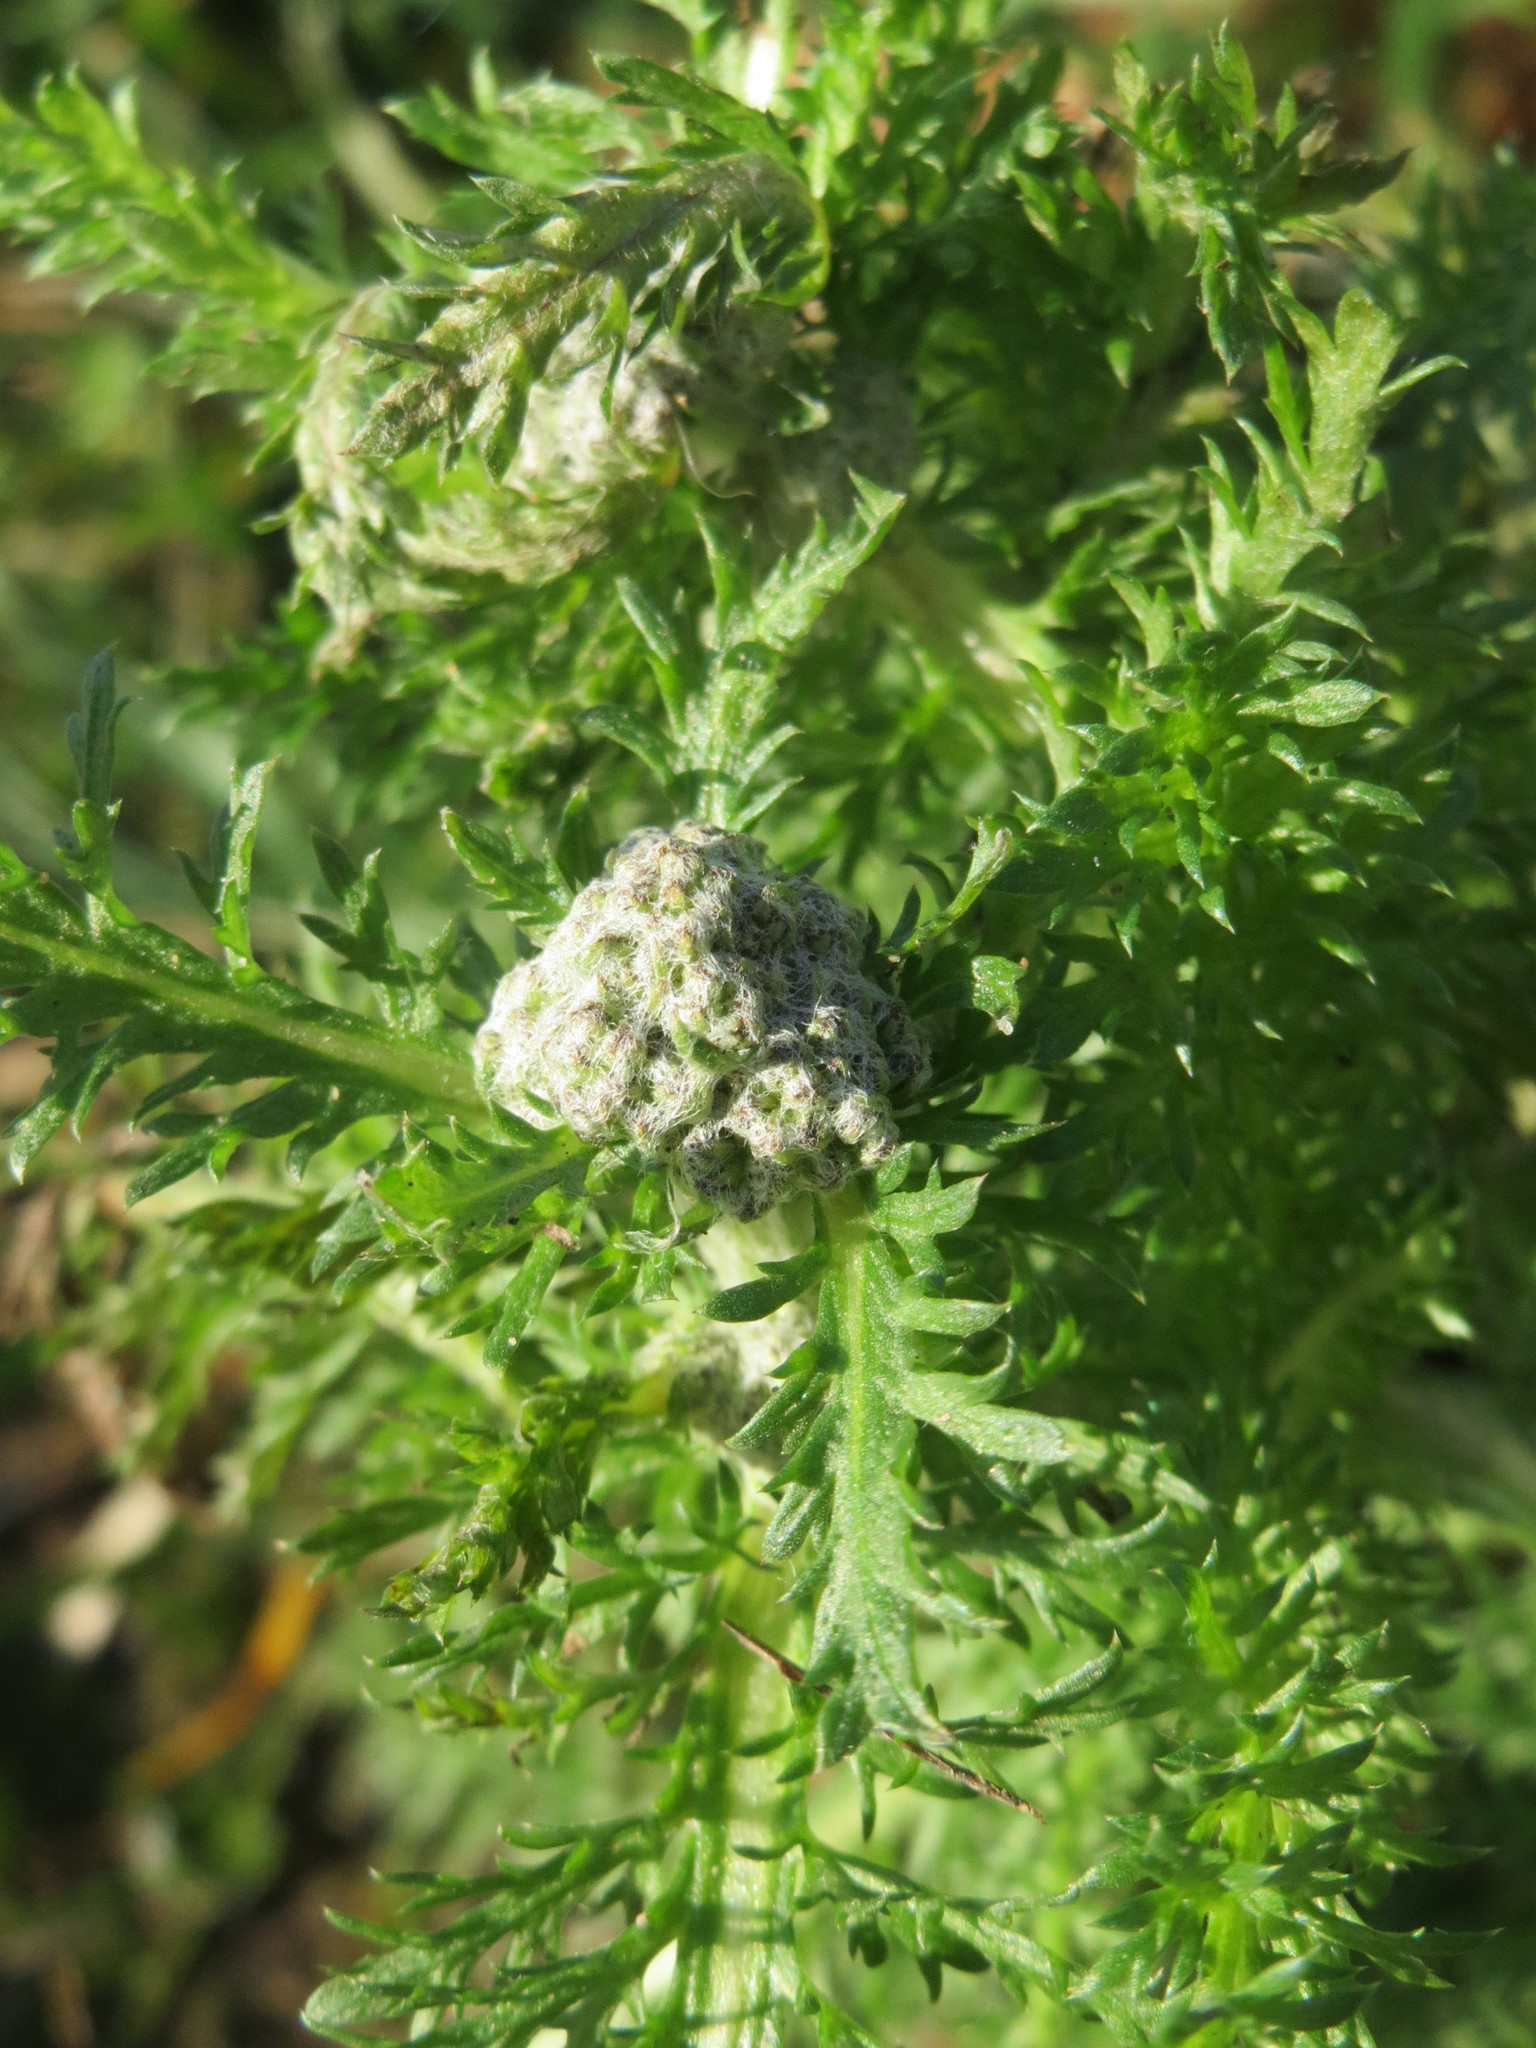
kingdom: Plantae
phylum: Tracheophyta
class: Magnoliopsida
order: Asterales
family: Asteraceae
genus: Achillea
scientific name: Achillea millefolium
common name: Yarrow
